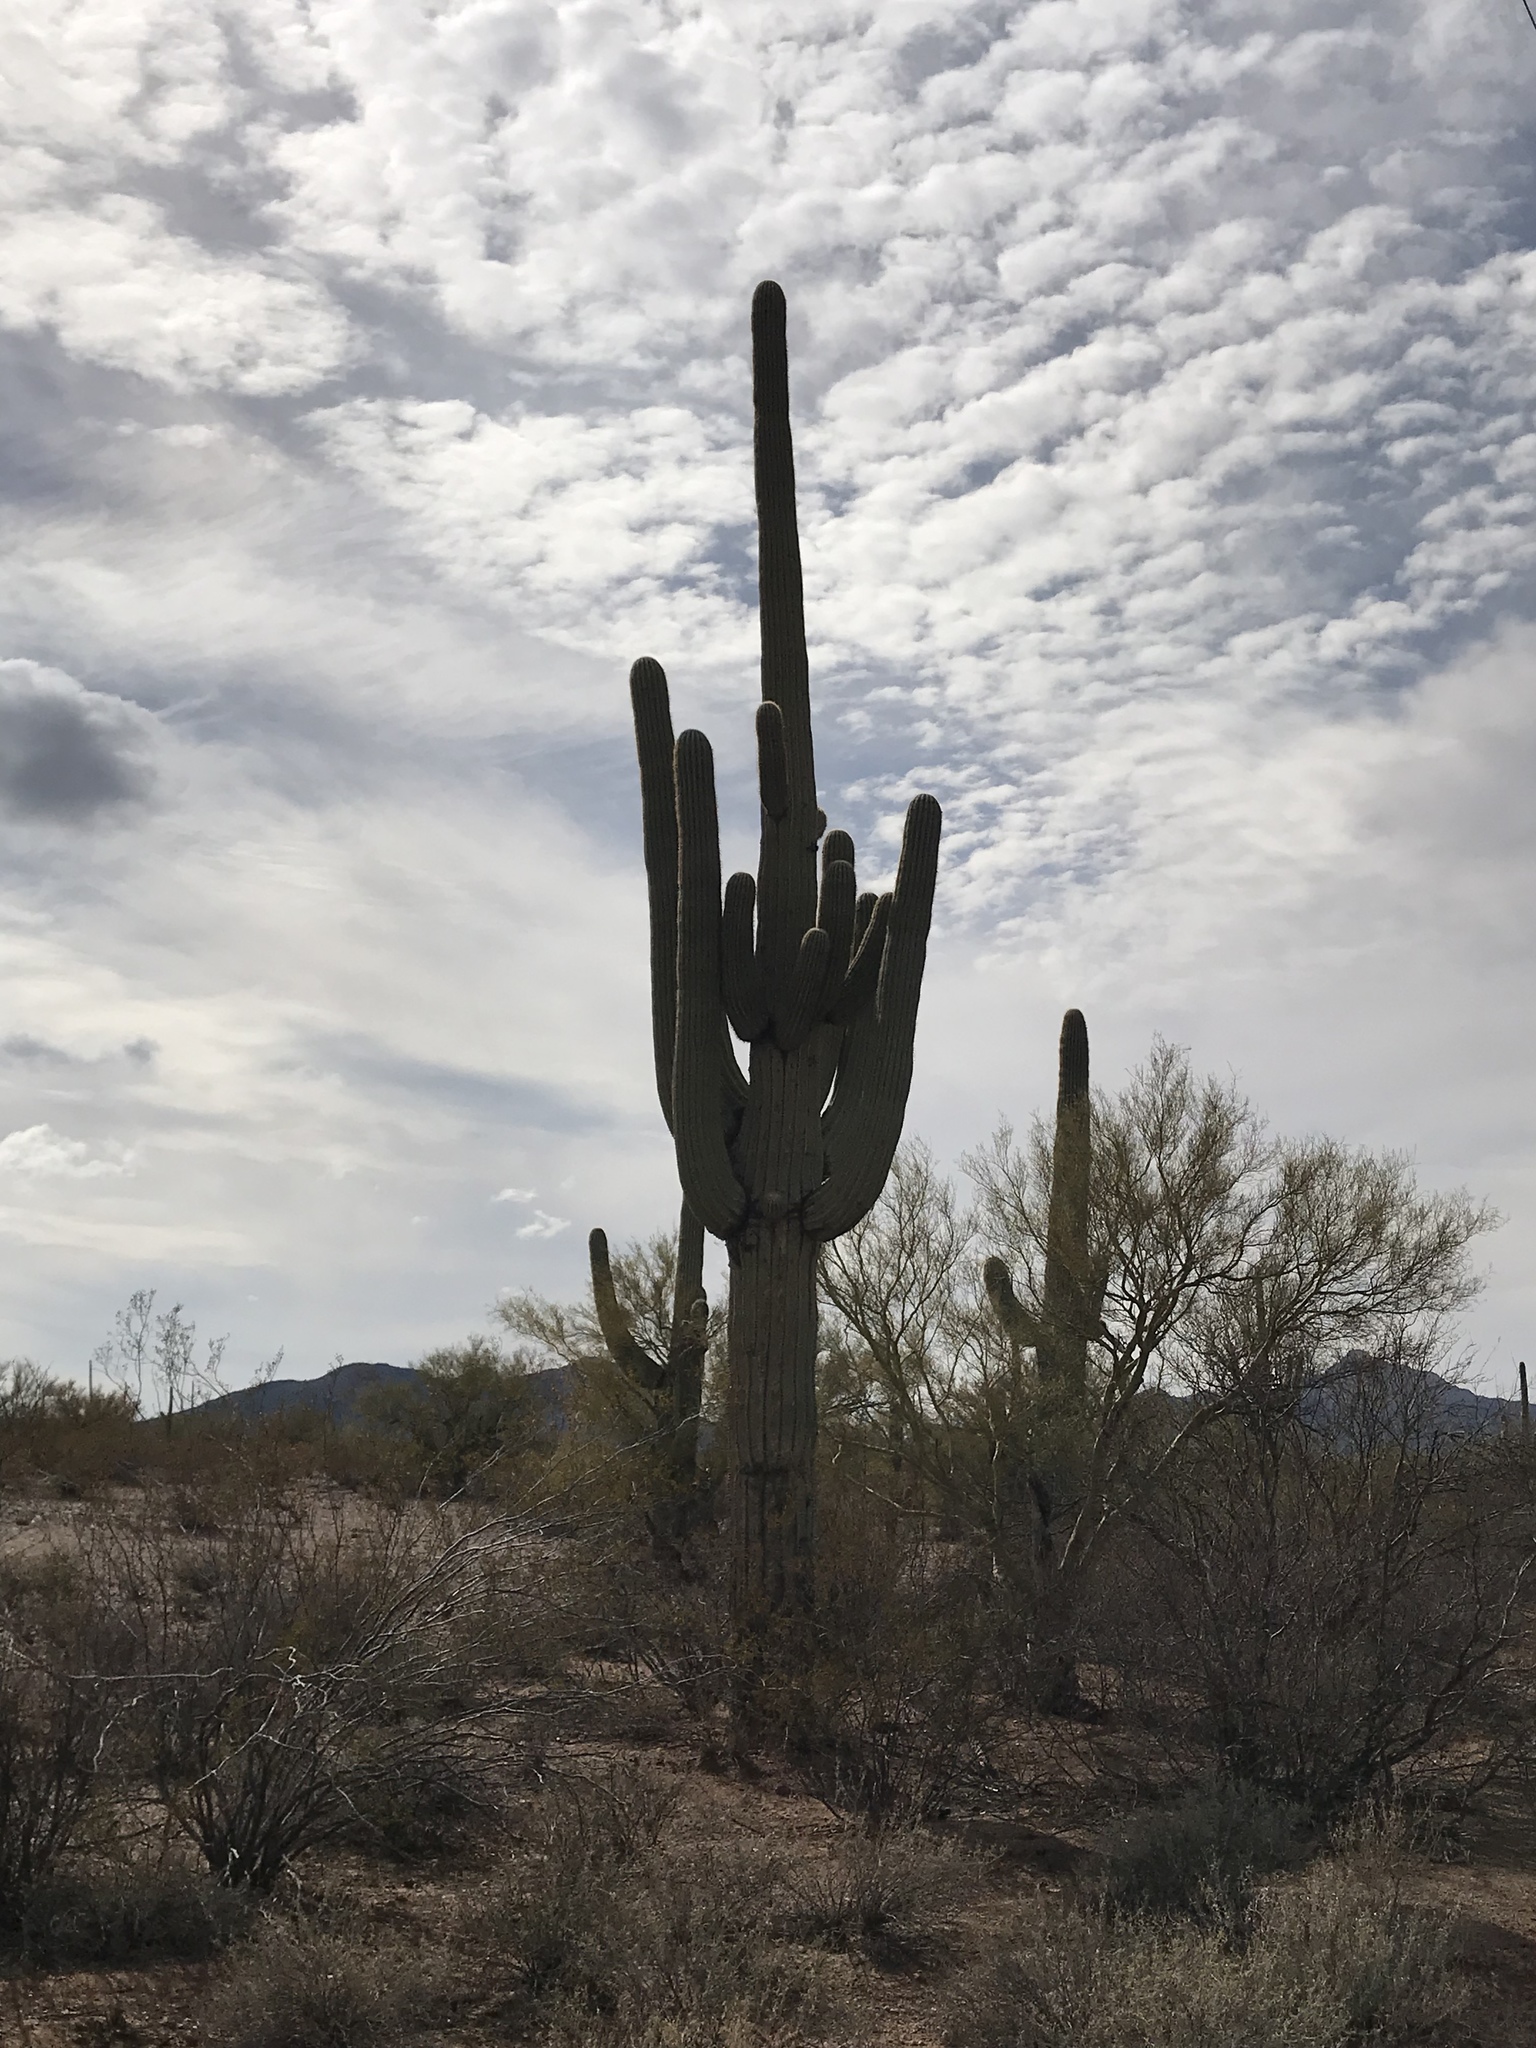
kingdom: Plantae
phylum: Tracheophyta
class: Magnoliopsida
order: Caryophyllales
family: Cactaceae
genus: Carnegiea
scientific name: Carnegiea gigantea
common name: Saguaro
